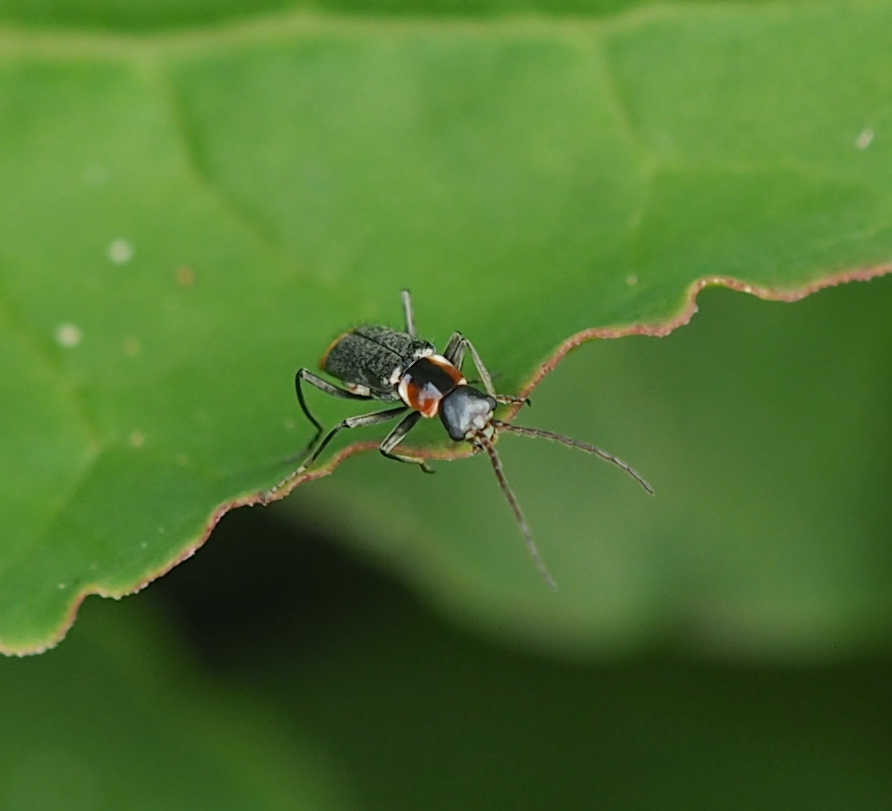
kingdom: Animalia
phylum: Arthropoda
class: Insecta
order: Coleoptera
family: Melyridae
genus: Axinotarsus
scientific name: Axinotarsus pulicarius
